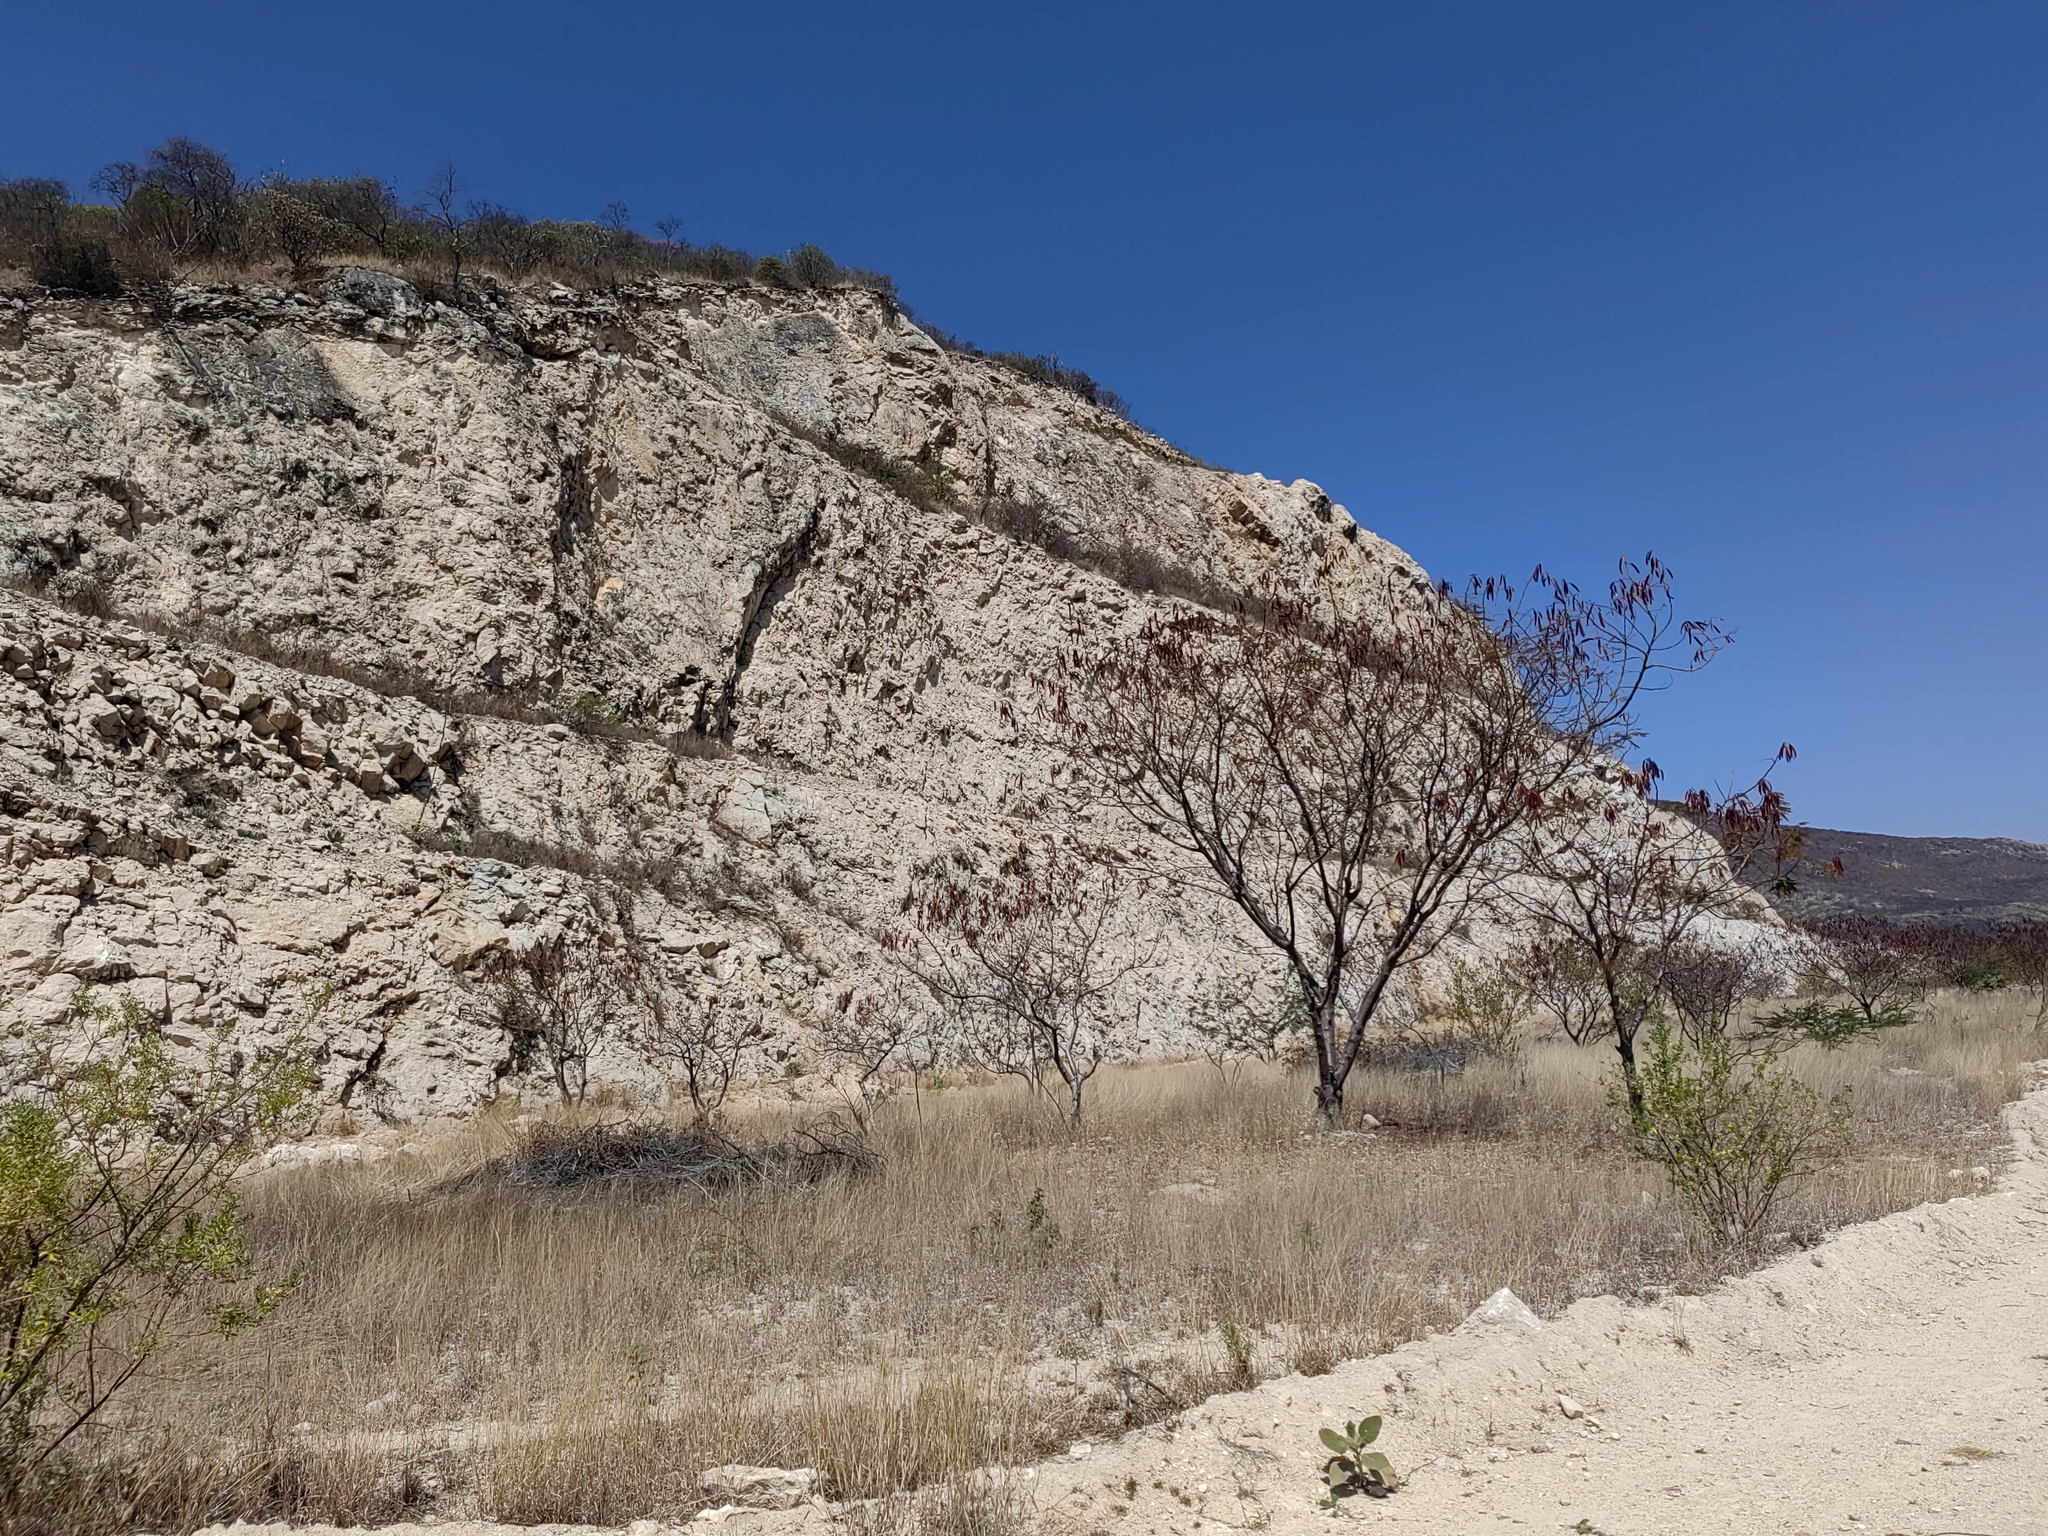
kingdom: Plantae
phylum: Tracheophyta
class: Magnoliopsida
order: Fabales
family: Fabaceae
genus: Leucaena
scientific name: Leucaena esculenta
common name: Guaje
